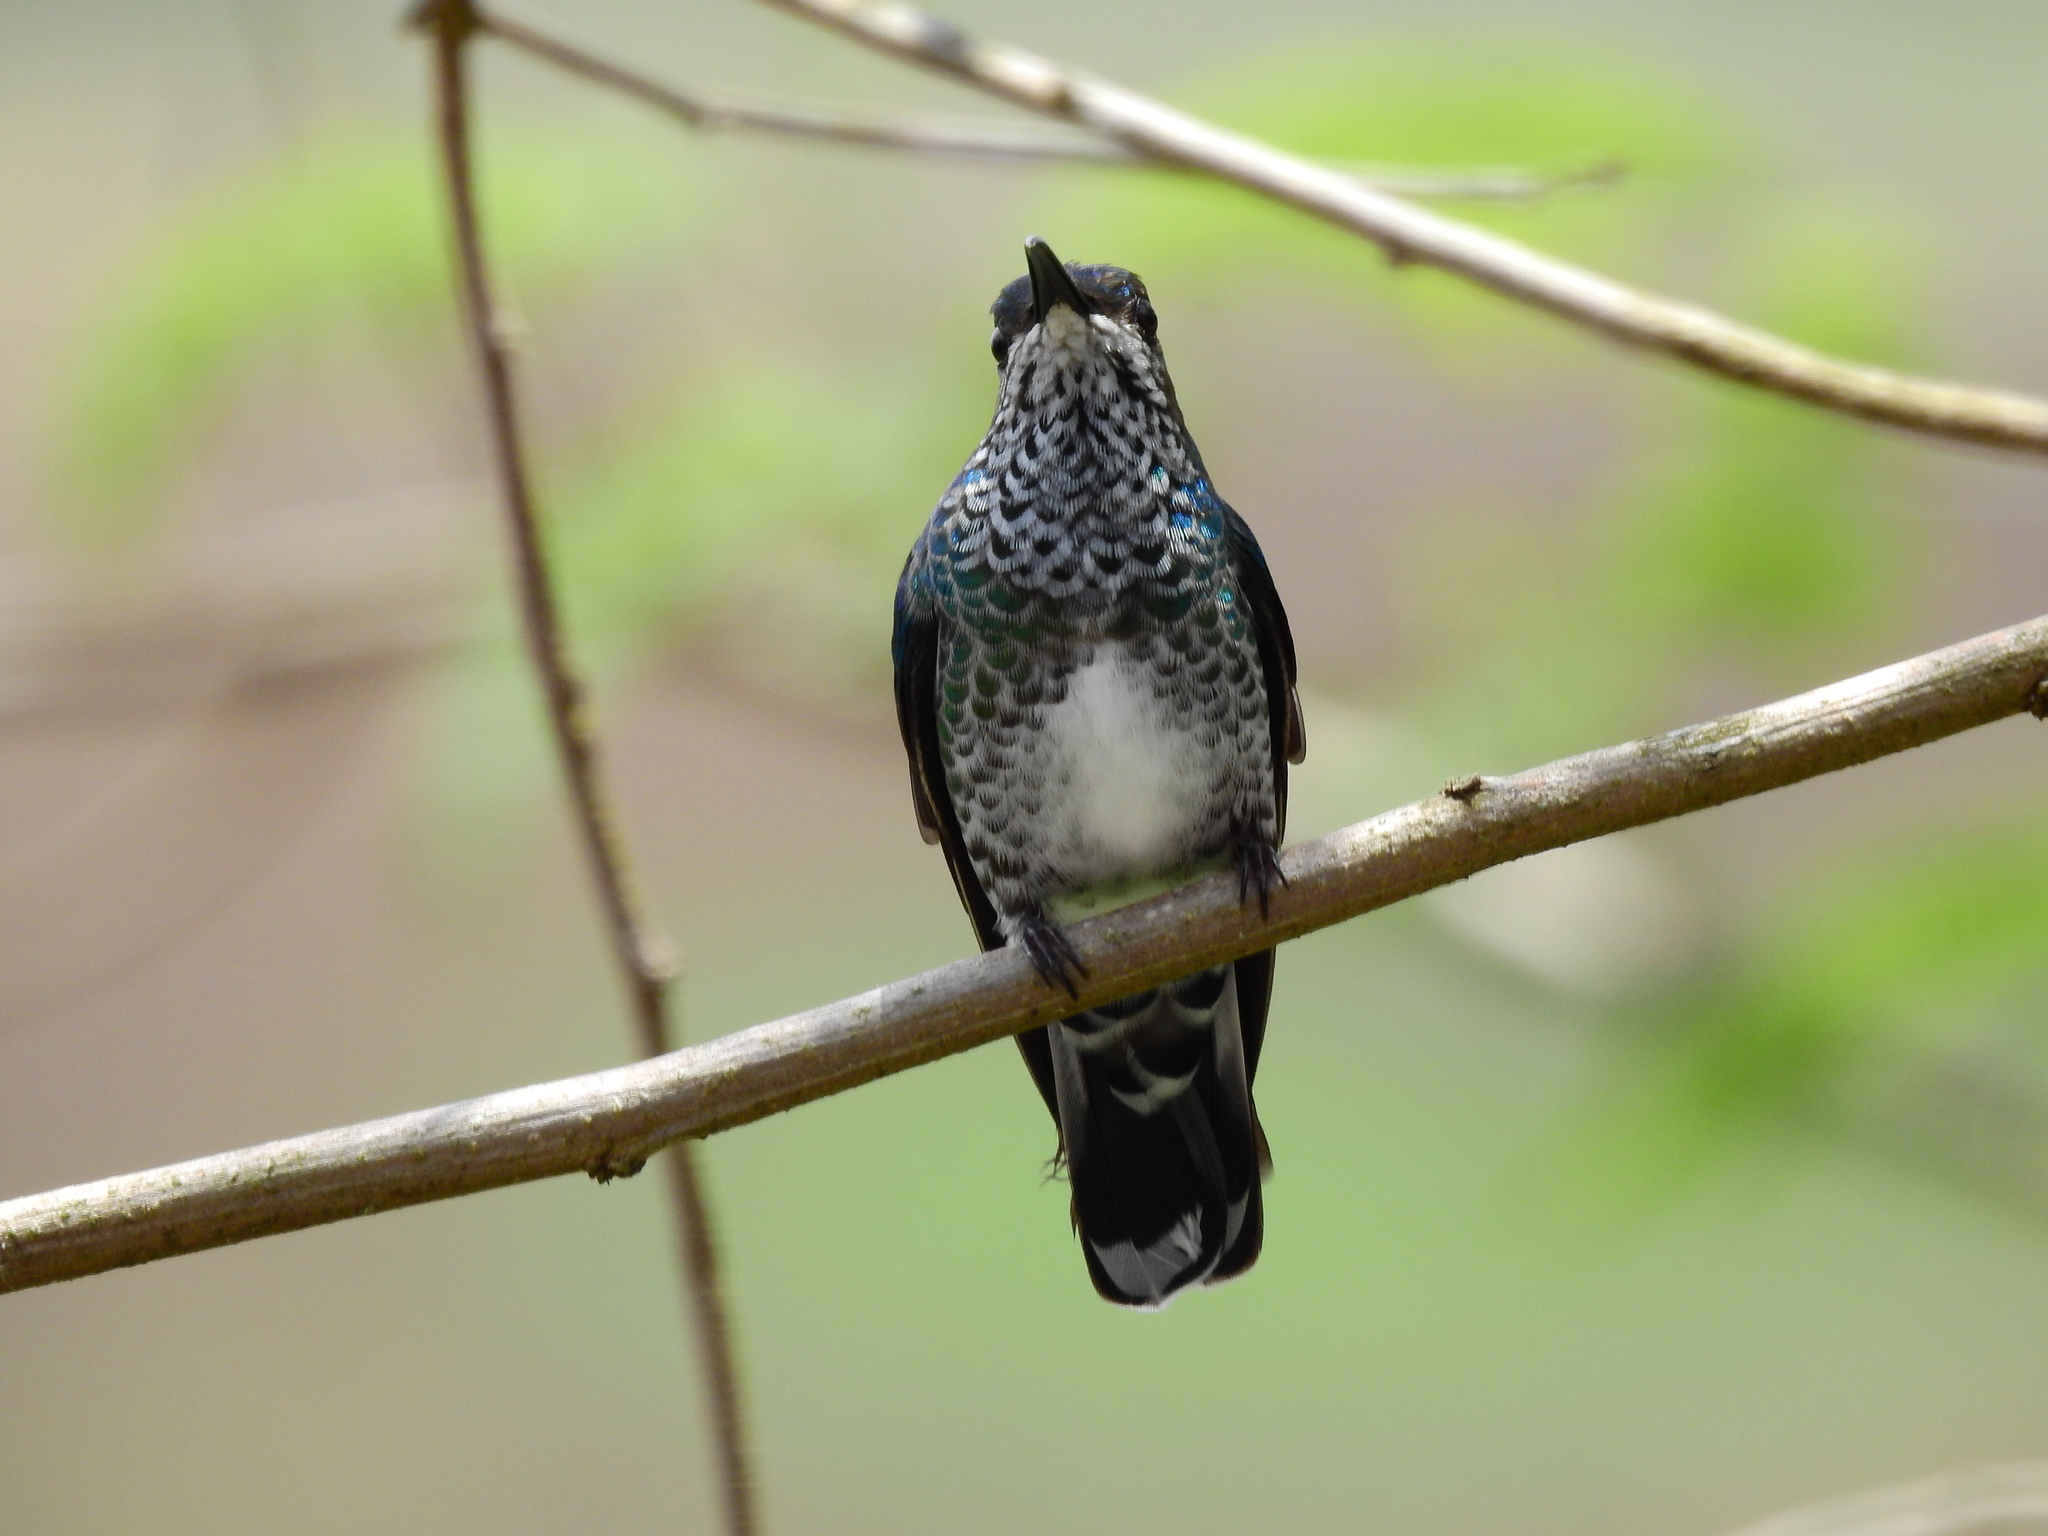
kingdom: Animalia
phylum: Chordata
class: Aves
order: Apodiformes
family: Trochilidae
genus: Florisuga
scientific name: Florisuga mellivora
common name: White-necked jacobin
